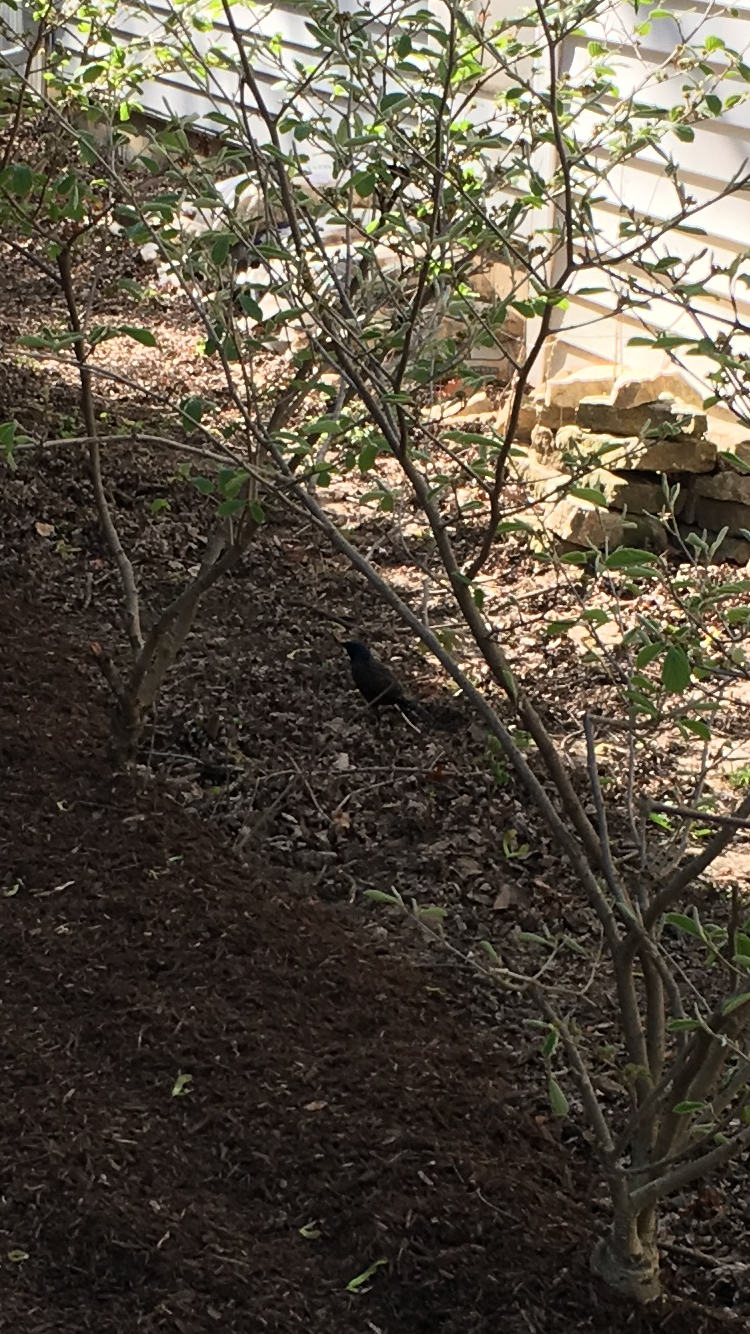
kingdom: Animalia
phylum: Chordata
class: Aves
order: Passeriformes
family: Icteridae
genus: Quiscalus
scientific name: Quiscalus quiscula
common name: Common grackle
